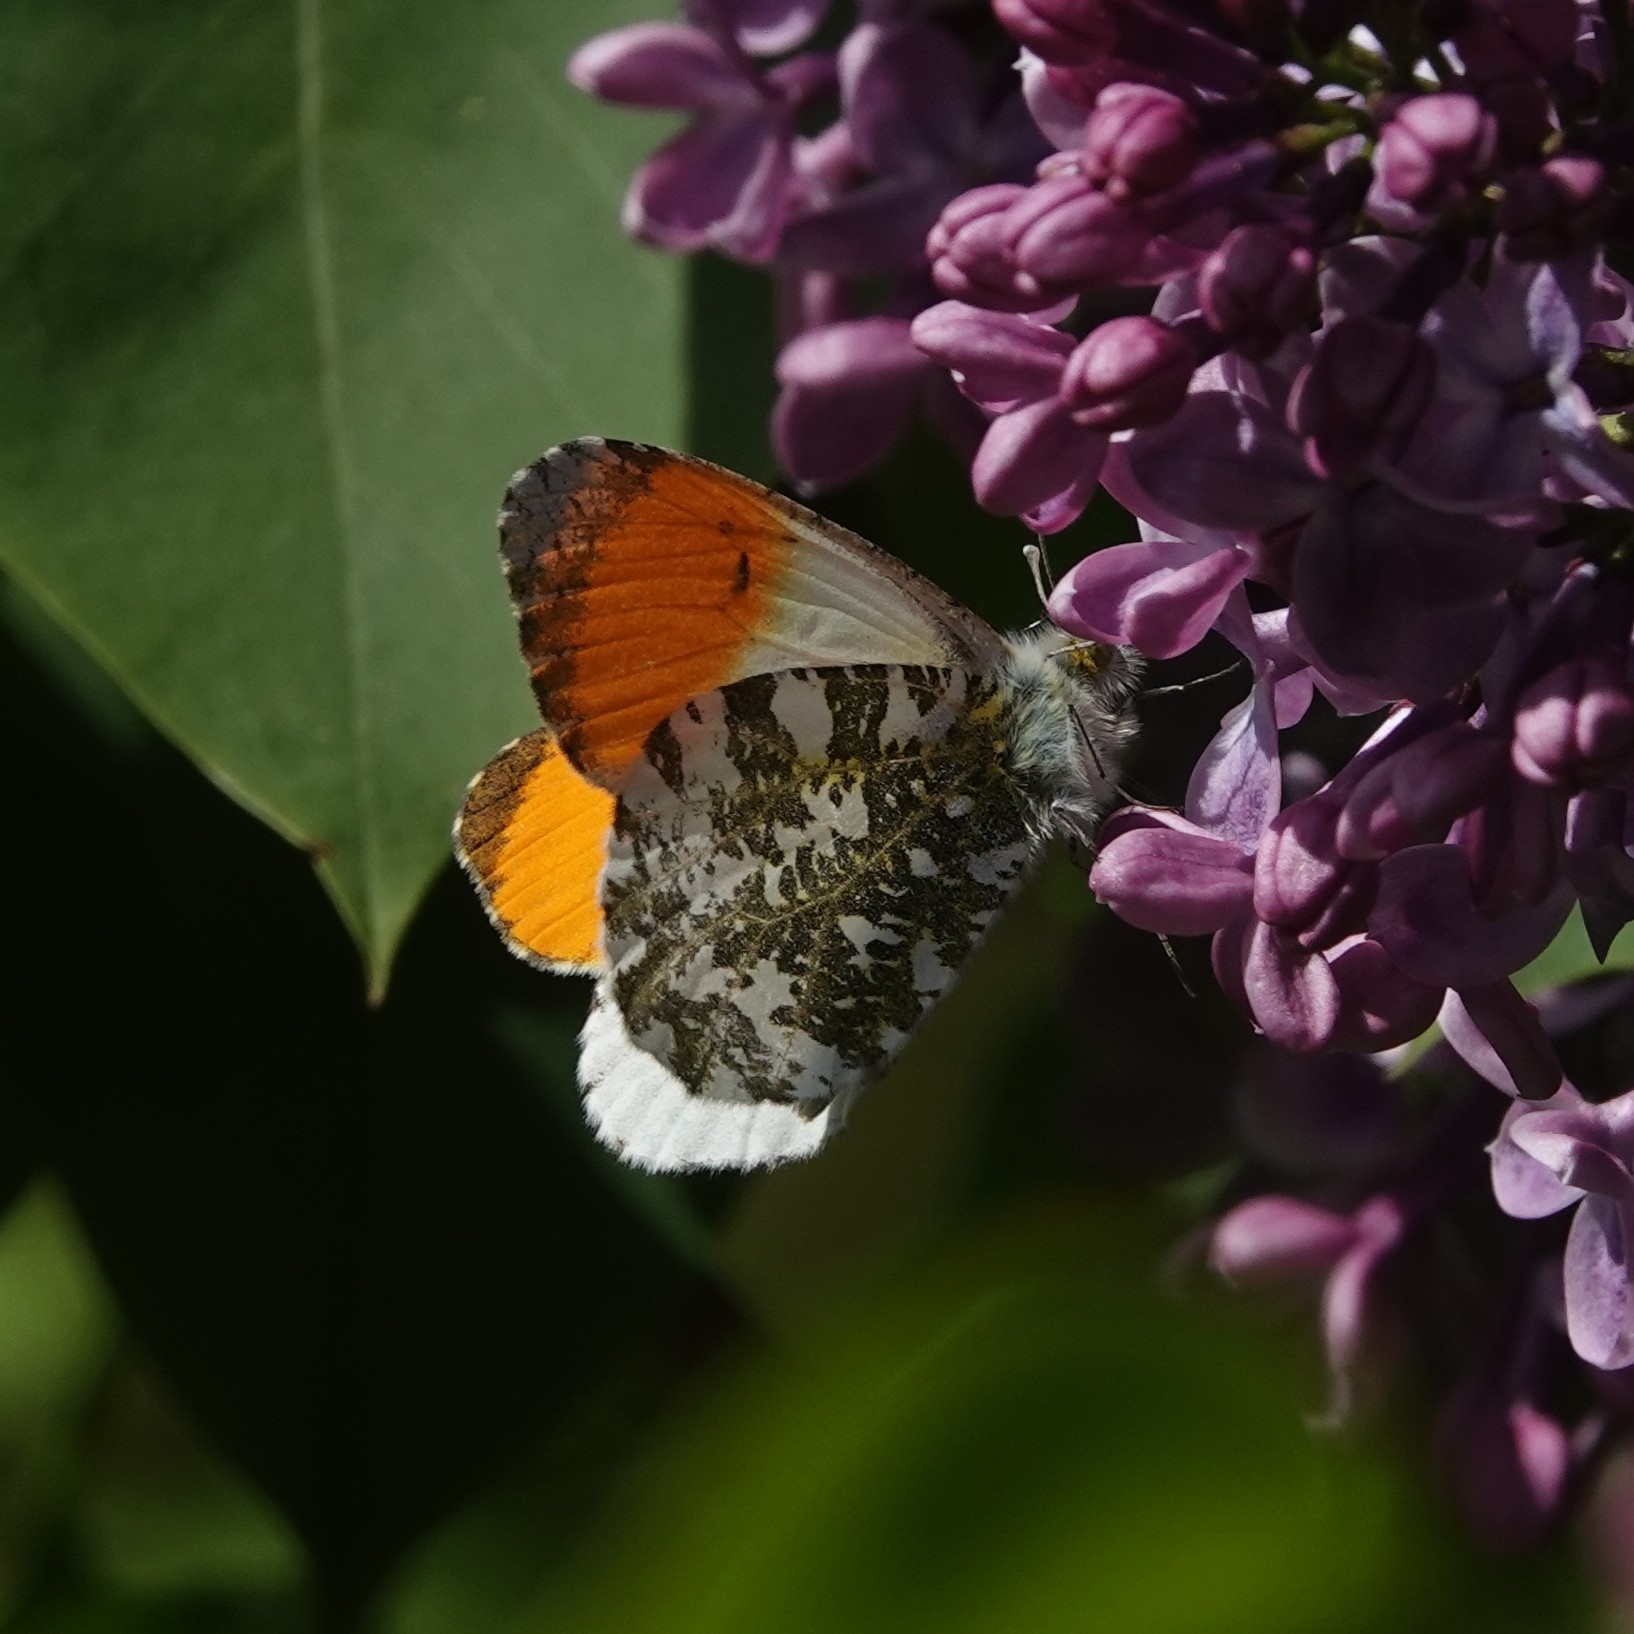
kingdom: Animalia
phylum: Arthropoda
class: Insecta
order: Lepidoptera
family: Pieridae
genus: Anthocharis
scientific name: Anthocharis cardamines
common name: Orange-tip
